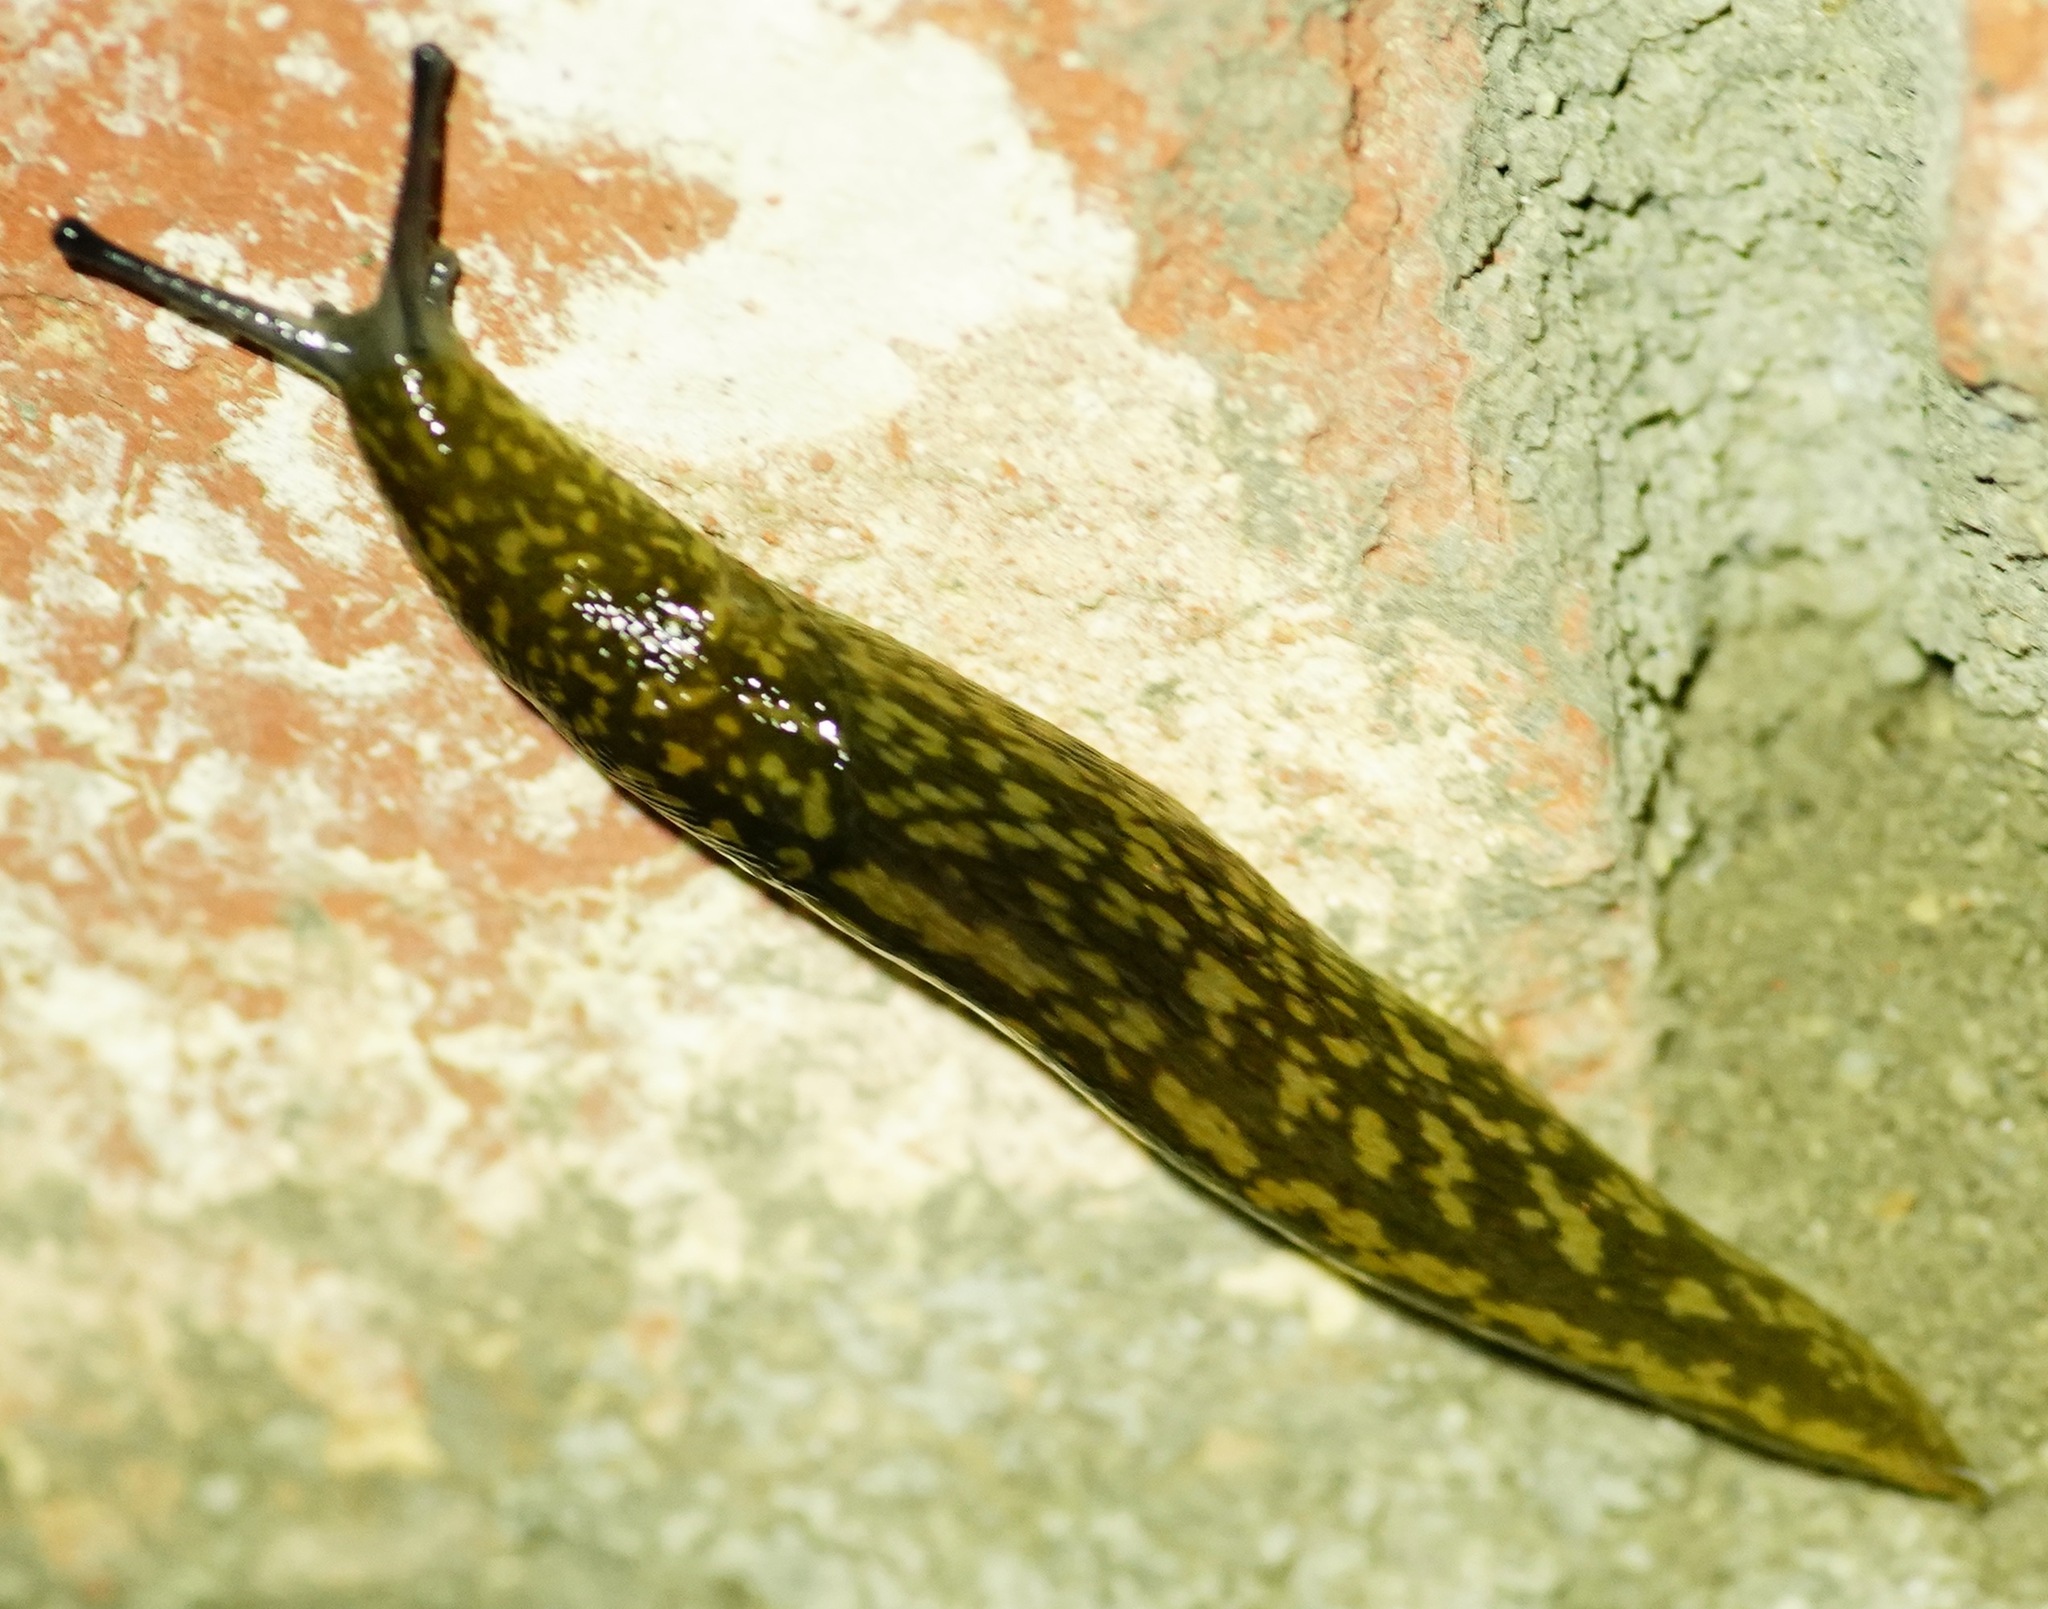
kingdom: Animalia
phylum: Mollusca
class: Gastropoda
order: Stylommatophora
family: Limacidae
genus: Limacus
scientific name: Limacus flavus
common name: Yellow gardenslug
